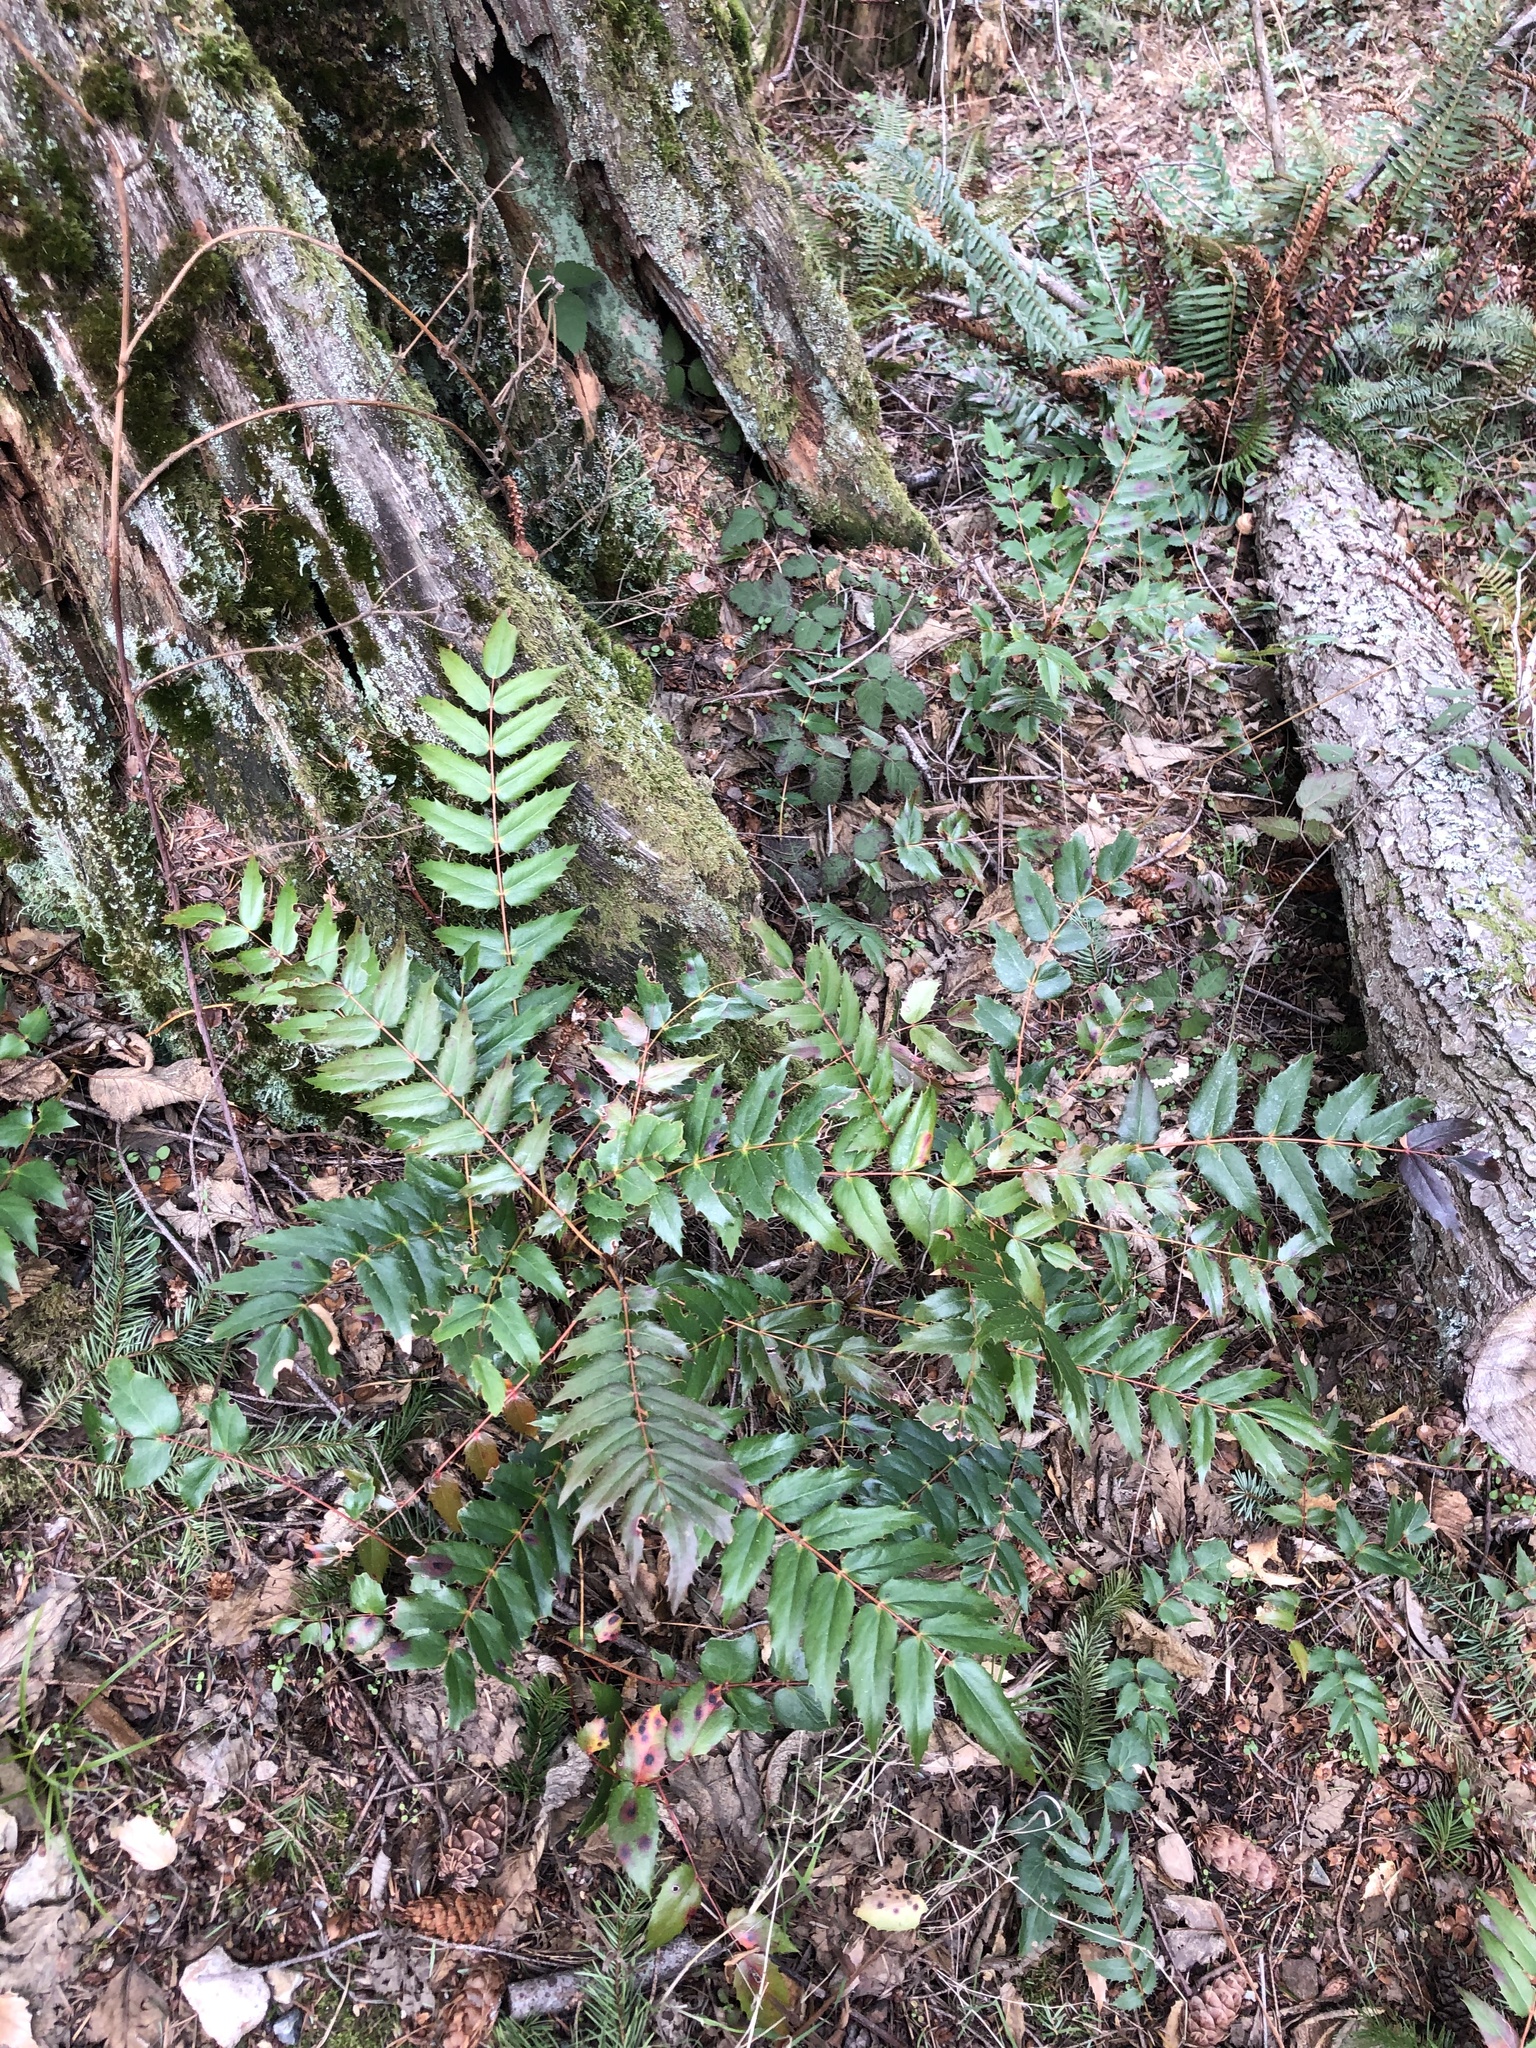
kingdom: Plantae
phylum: Tracheophyta
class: Magnoliopsida
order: Ranunculales
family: Berberidaceae
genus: Mahonia
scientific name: Mahonia nervosa
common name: Cascade oregon-grape
